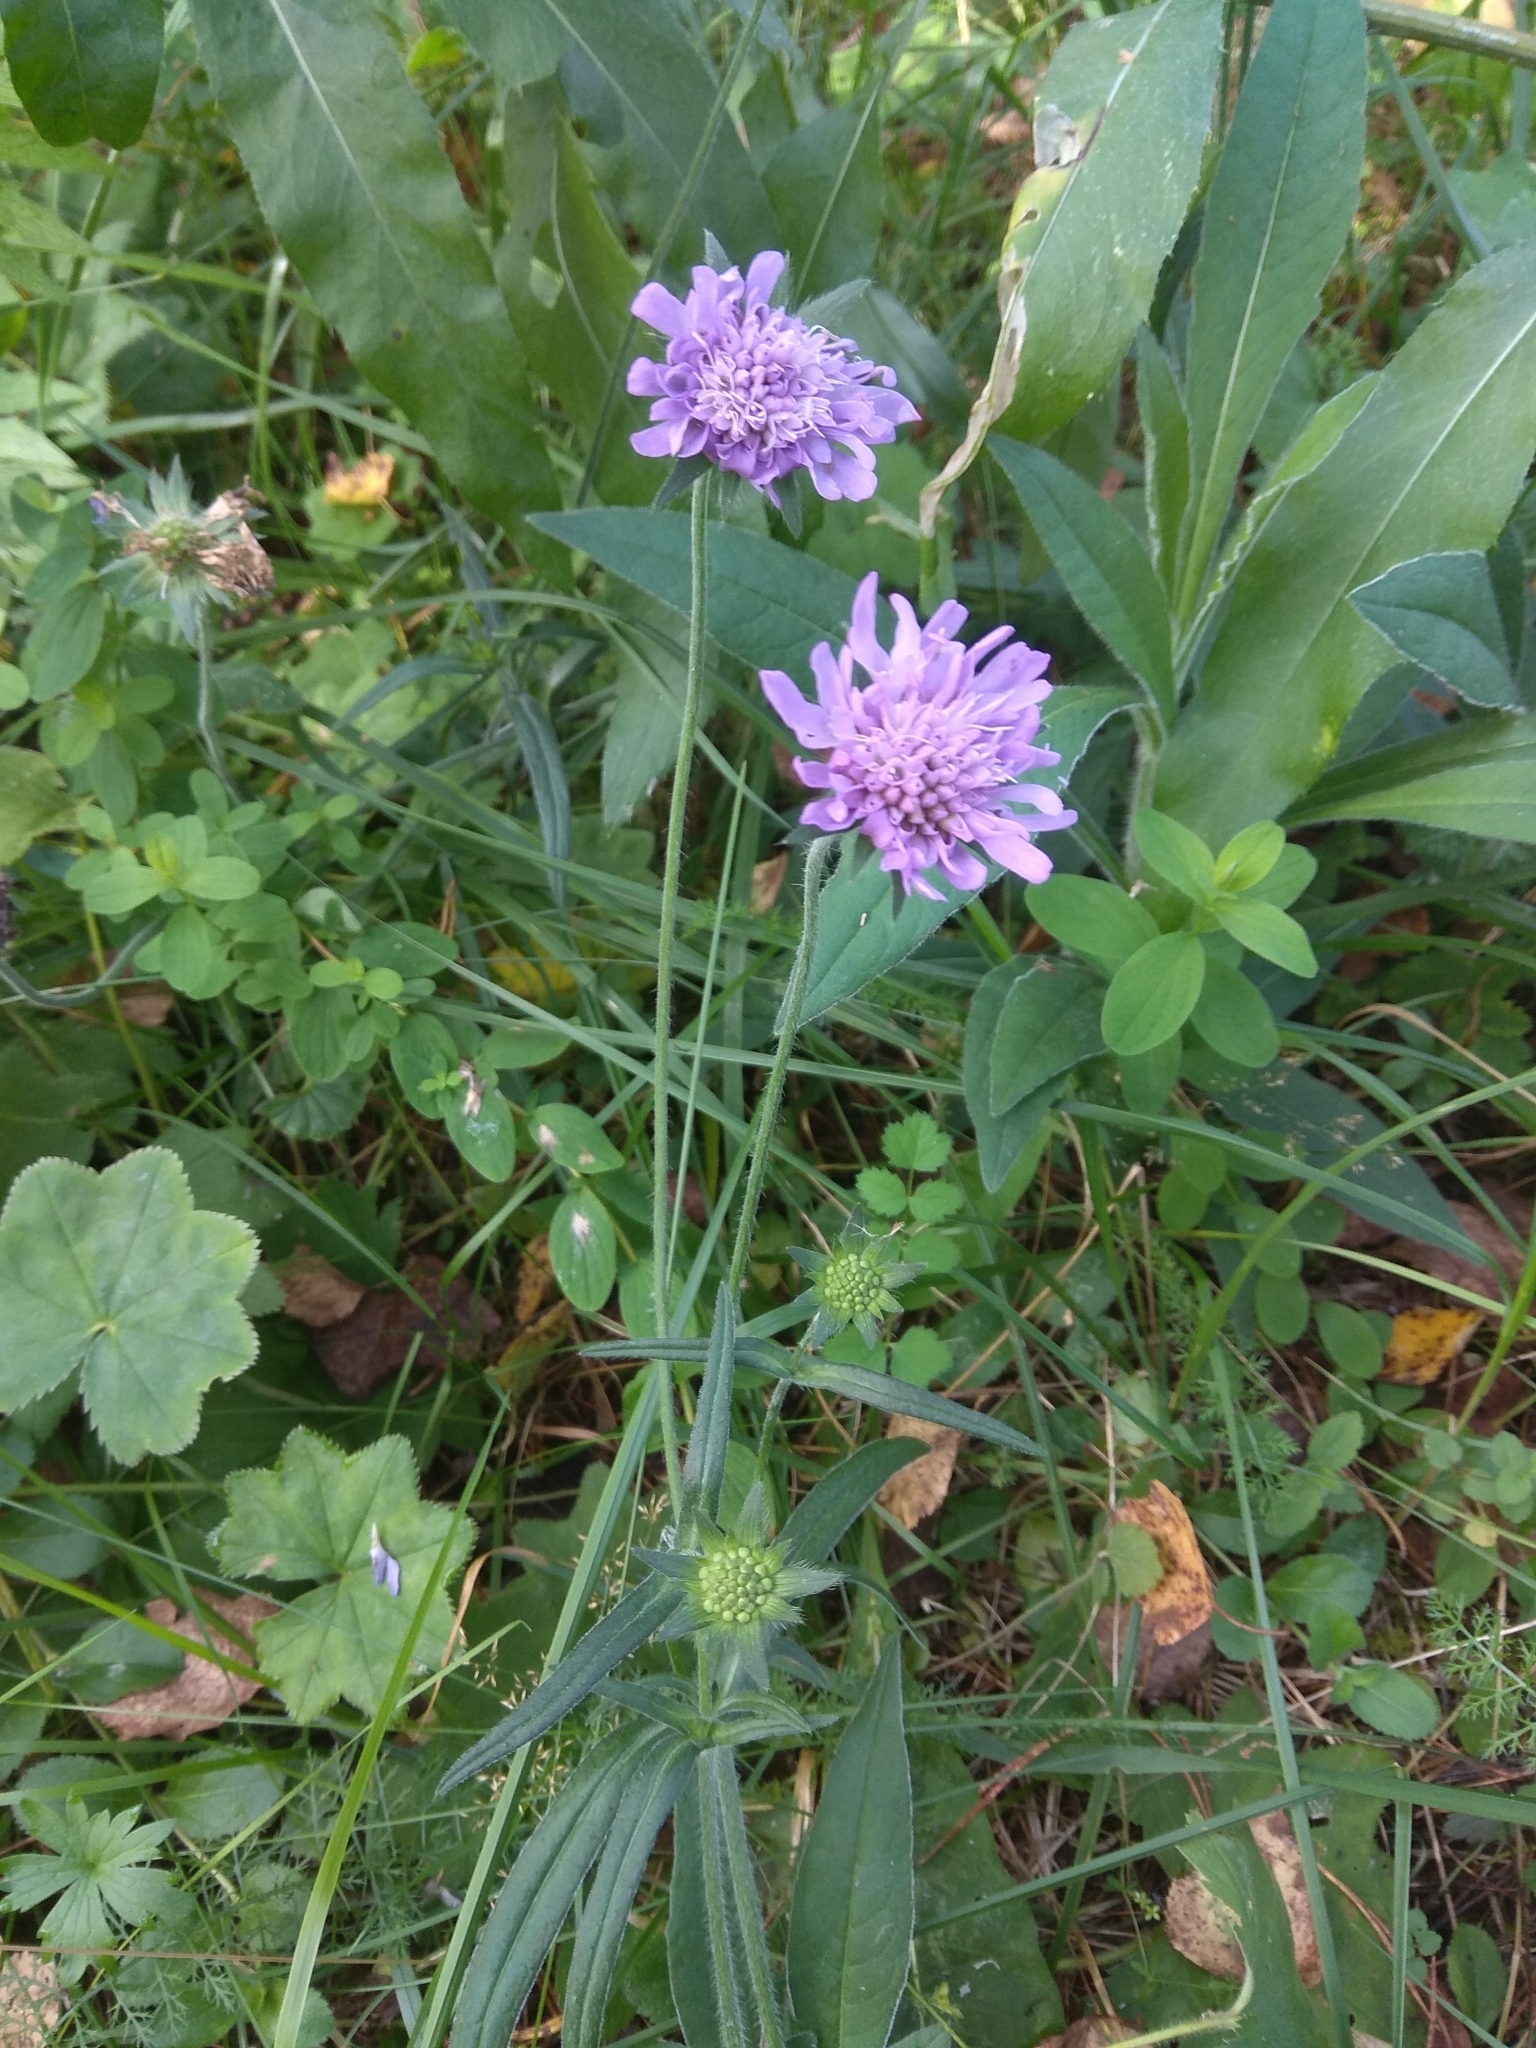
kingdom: Plantae
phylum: Tracheophyta
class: Magnoliopsida
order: Dipsacales
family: Caprifoliaceae
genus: Knautia
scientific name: Knautia arvensis
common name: Field scabiosa
